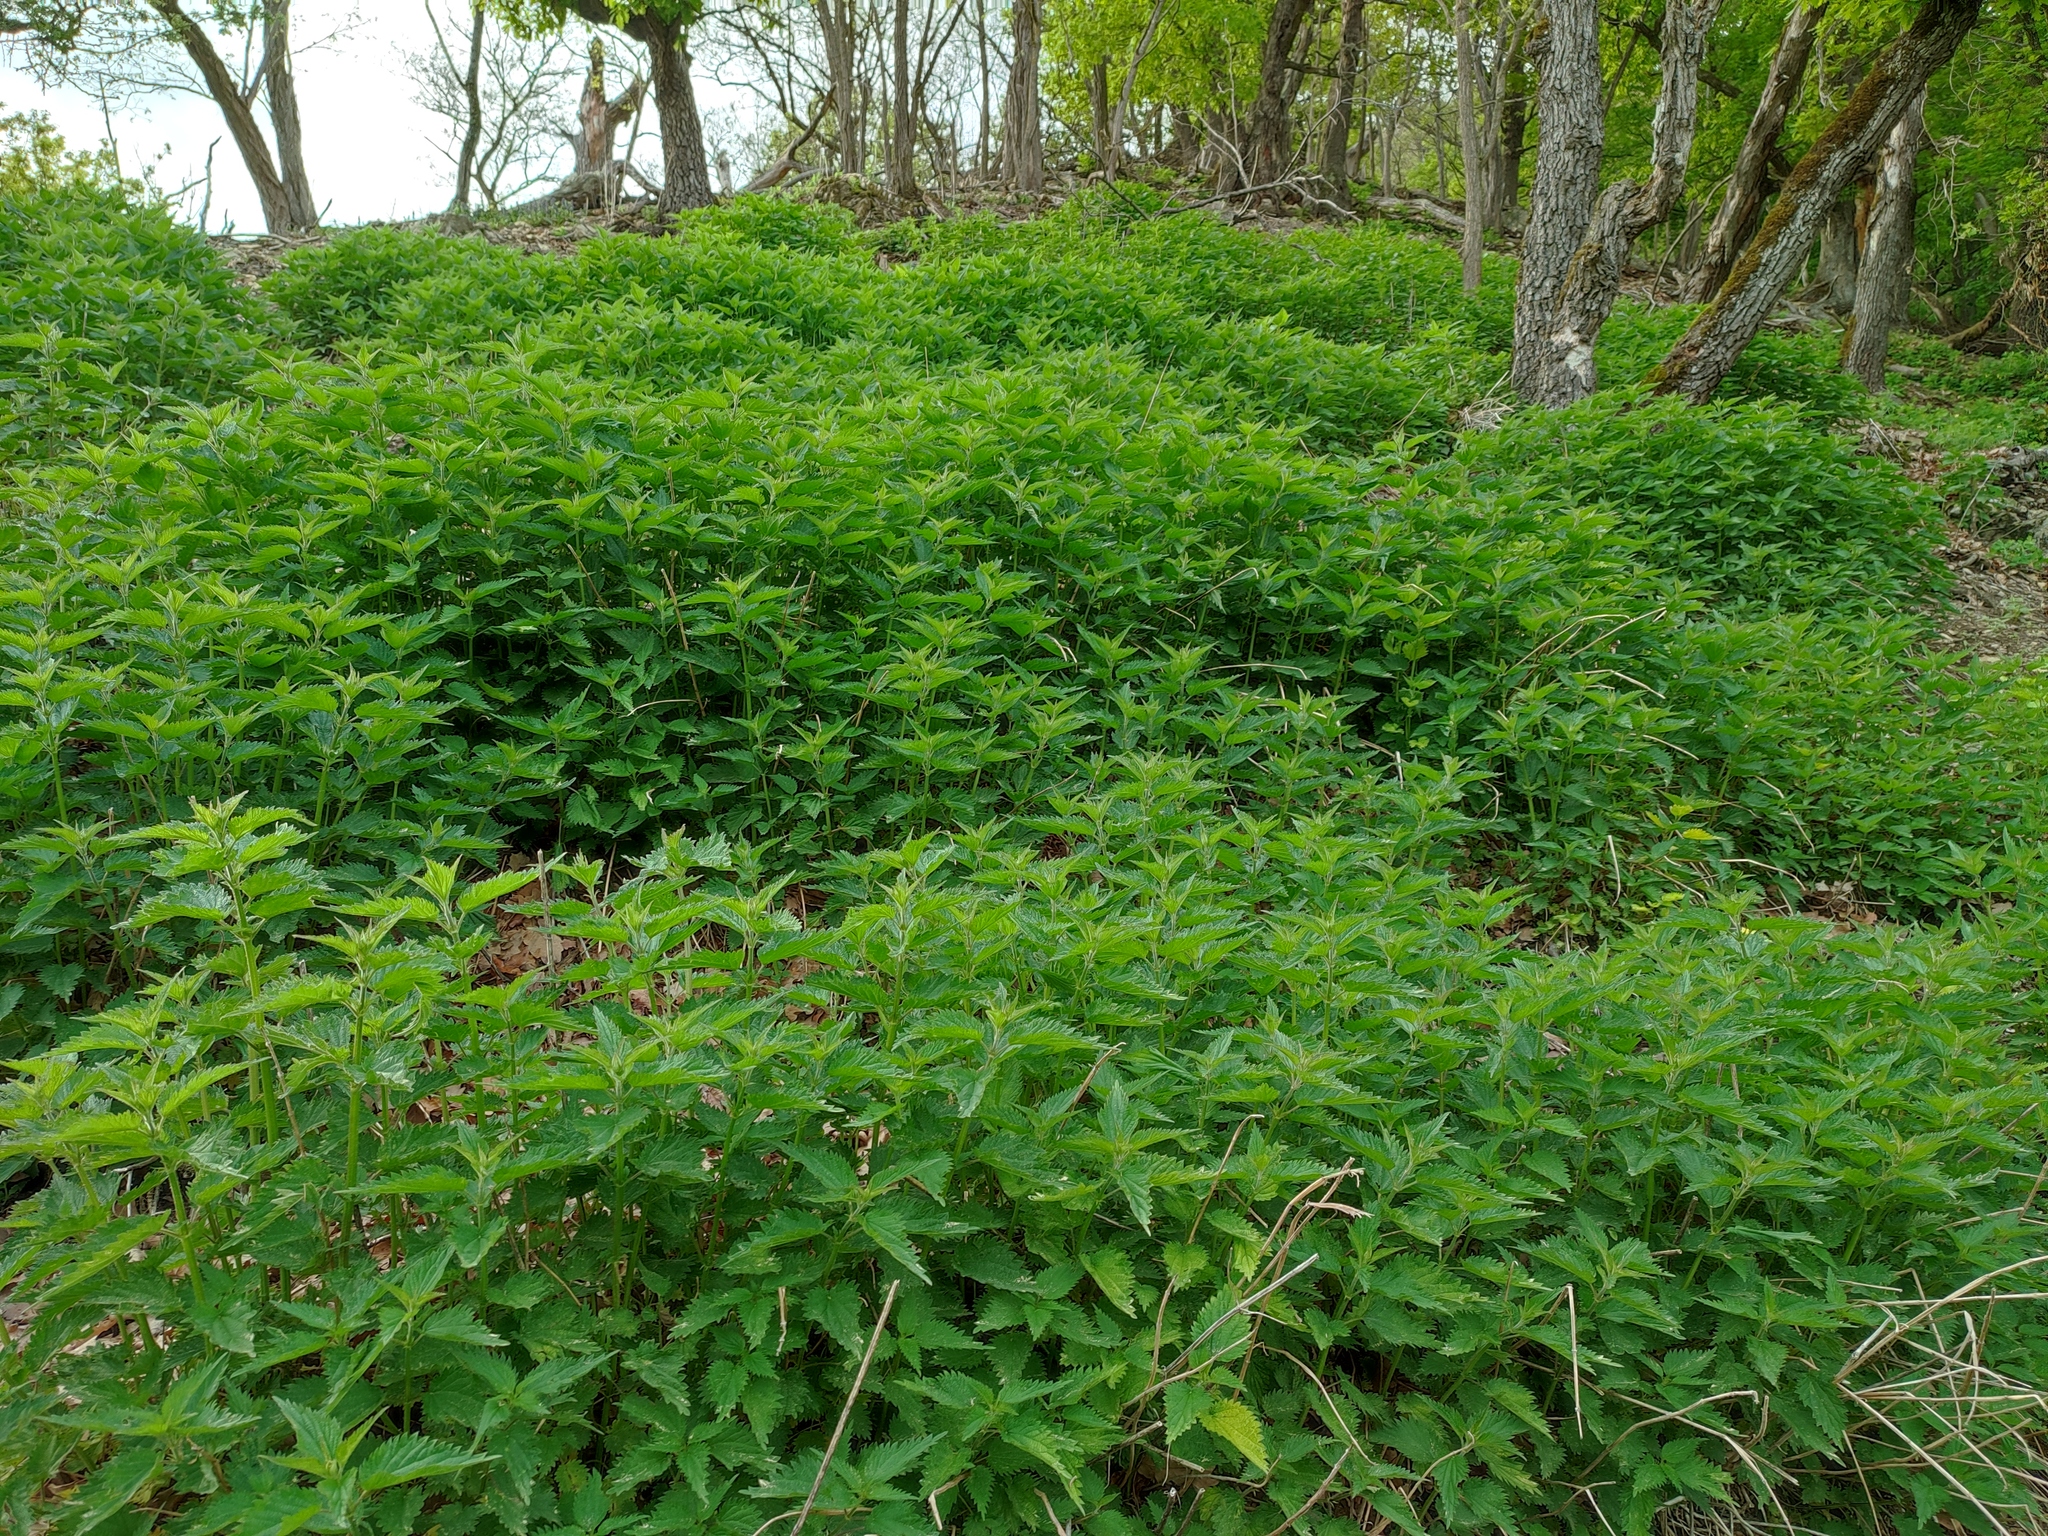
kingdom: Plantae
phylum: Tracheophyta
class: Magnoliopsida
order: Rosales
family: Urticaceae
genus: Urtica
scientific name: Urtica dioica
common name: Common nettle
